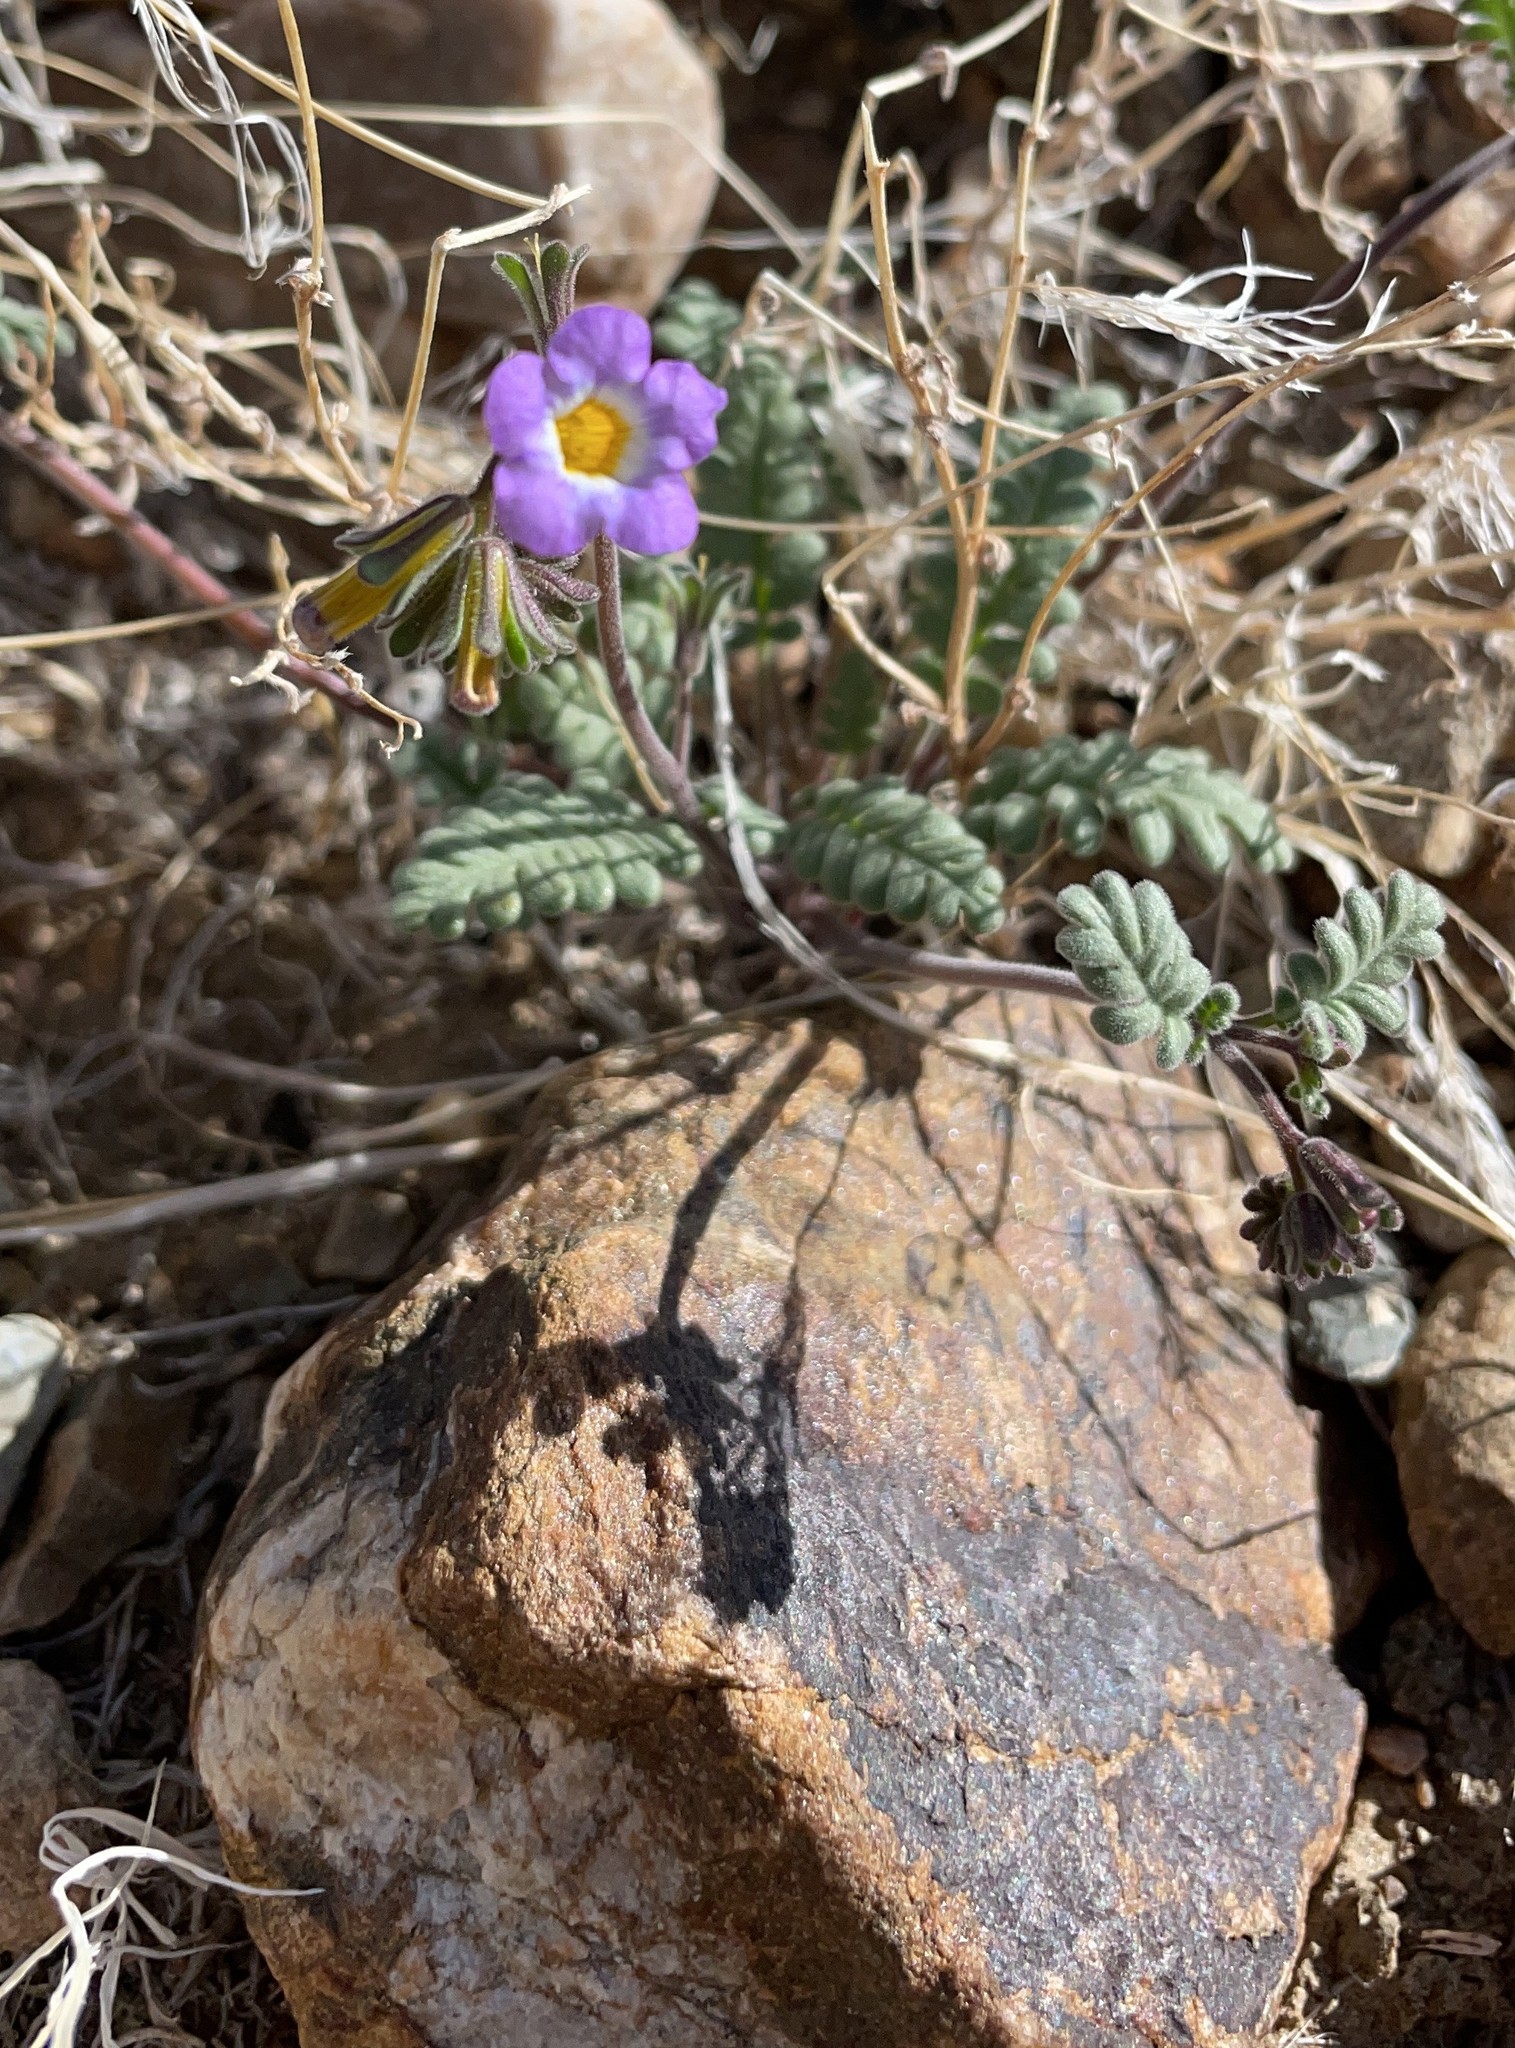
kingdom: Plantae
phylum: Tracheophyta
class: Magnoliopsida
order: Boraginales
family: Hydrophyllaceae
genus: Phacelia
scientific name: Phacelia fremontii
